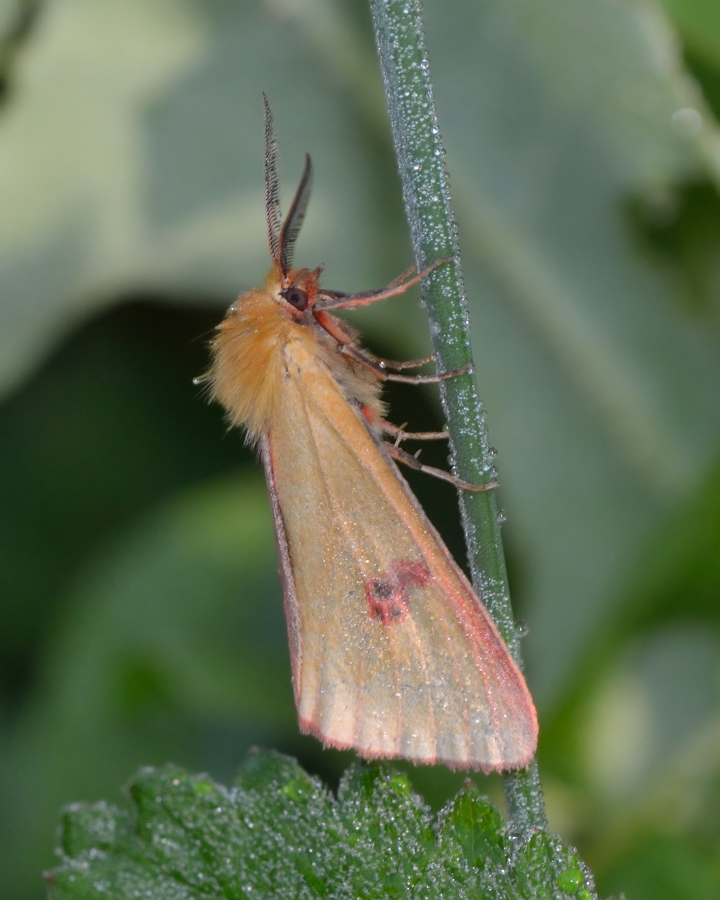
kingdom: Animalia
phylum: Arthropoda
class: Insecta
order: Lepidoptera
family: Erebidae
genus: Diacrisia
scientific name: Diacrisia sannio
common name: Clouded buff
